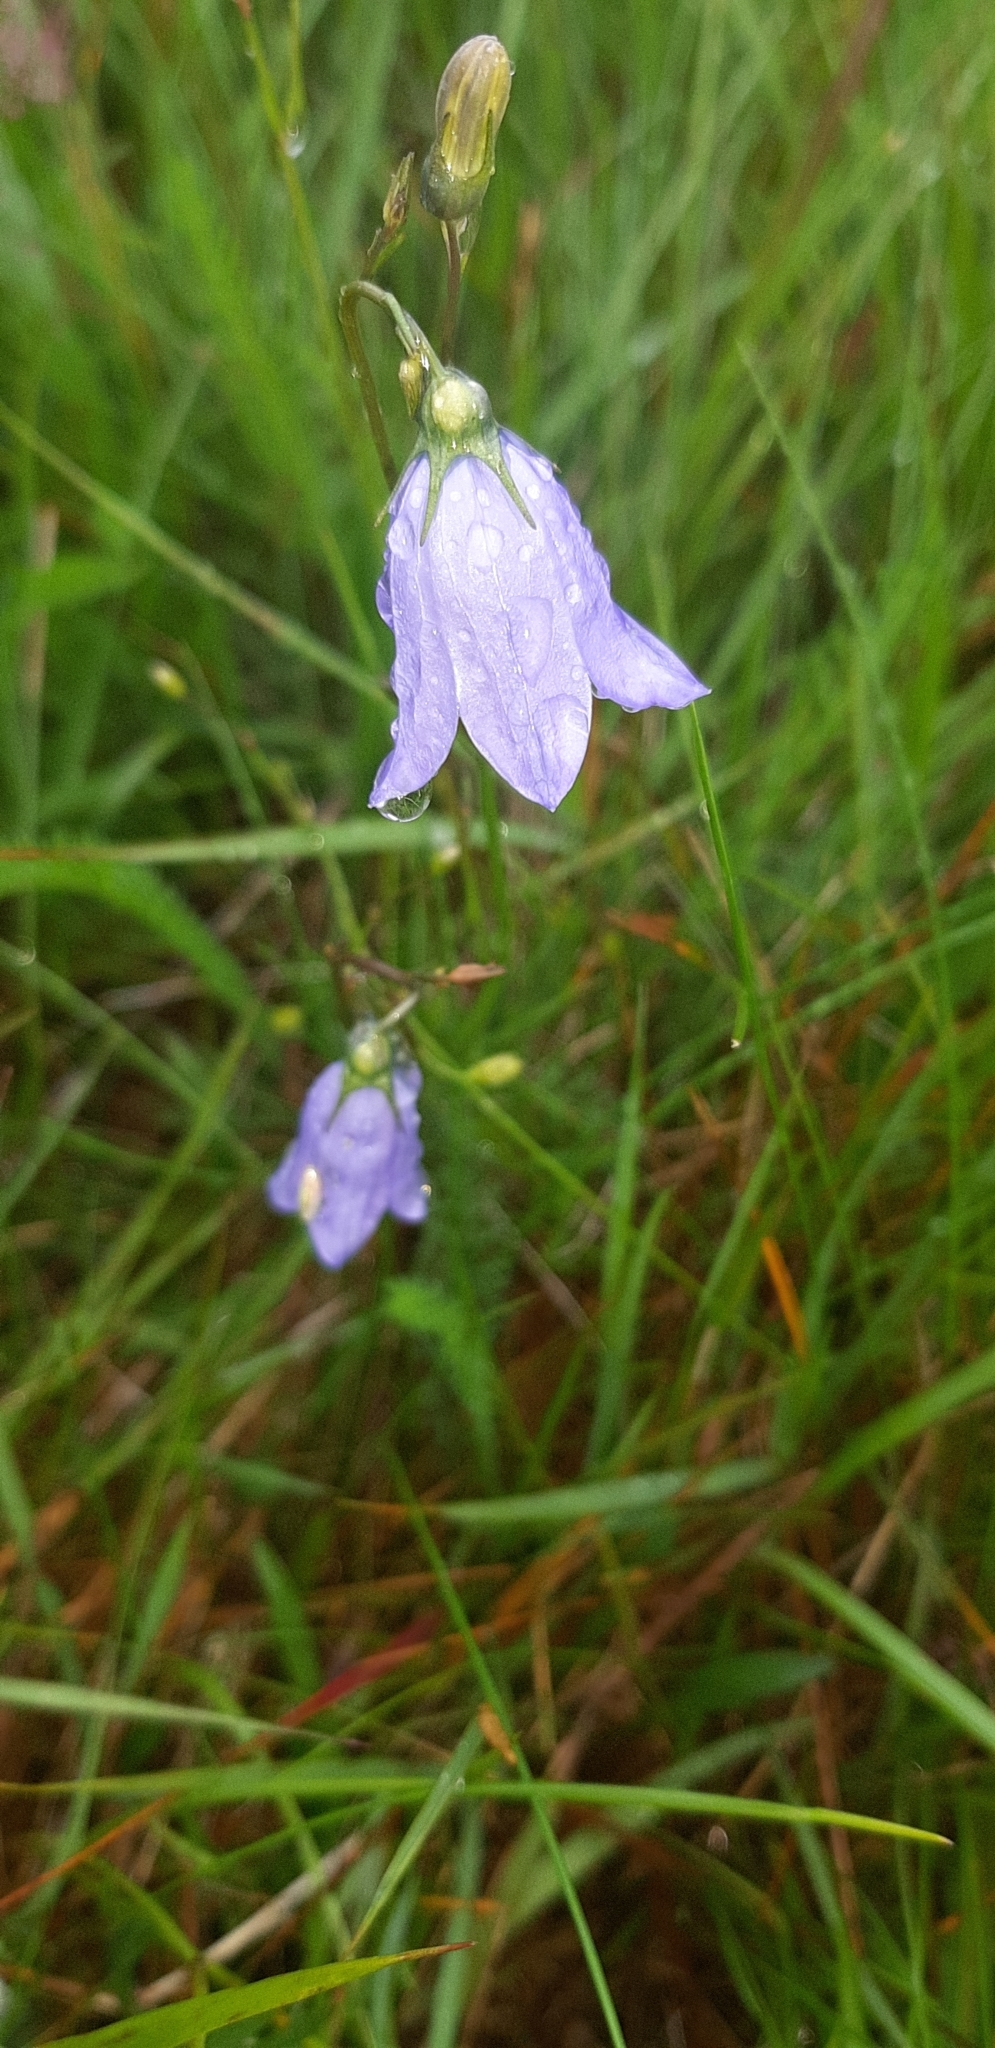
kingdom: Plantae
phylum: Tracheophyta
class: Magnoliopsida
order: Asterales
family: Campanulaceae
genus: Campanula
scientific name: Campanula rotundifolia
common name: Harebell
